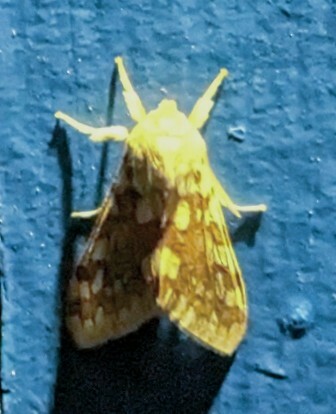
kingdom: Animalia
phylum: Arthropoda
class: Insecta
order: Lepidoptera
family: Erebidae
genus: Lophocampa
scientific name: Lophocampa maculata
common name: Spotted tussock moth
